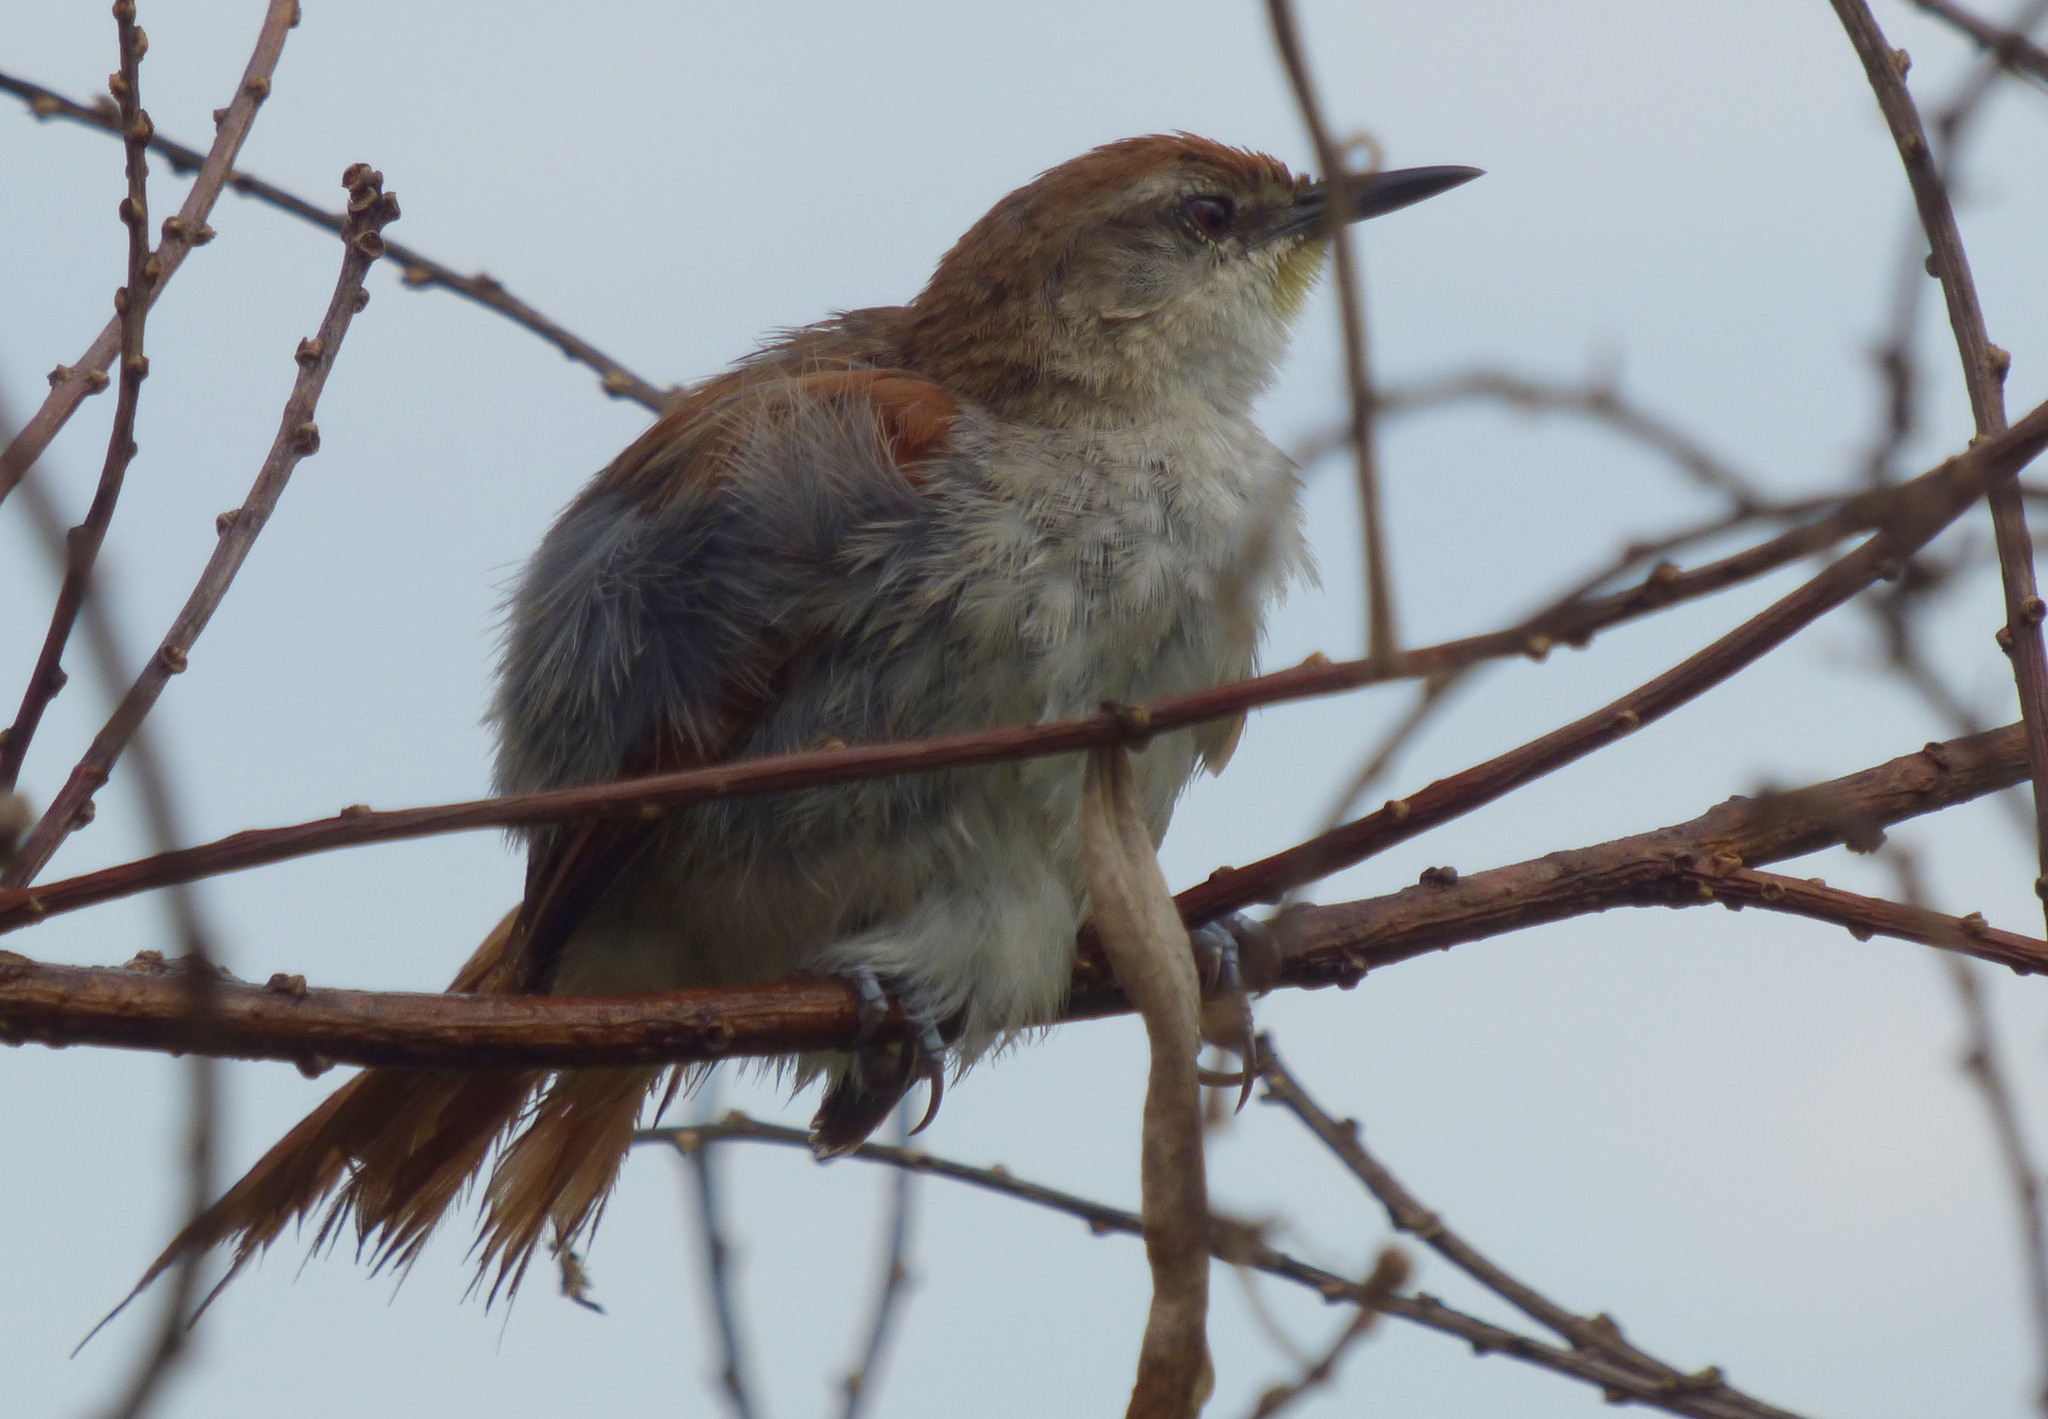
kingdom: Animalia
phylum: Chordata
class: Aves
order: Passeriformes
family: Furnariidae
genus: Certhiaxis
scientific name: Certhiaxis cinnamomeus
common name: Yellow-chinned spinetail
